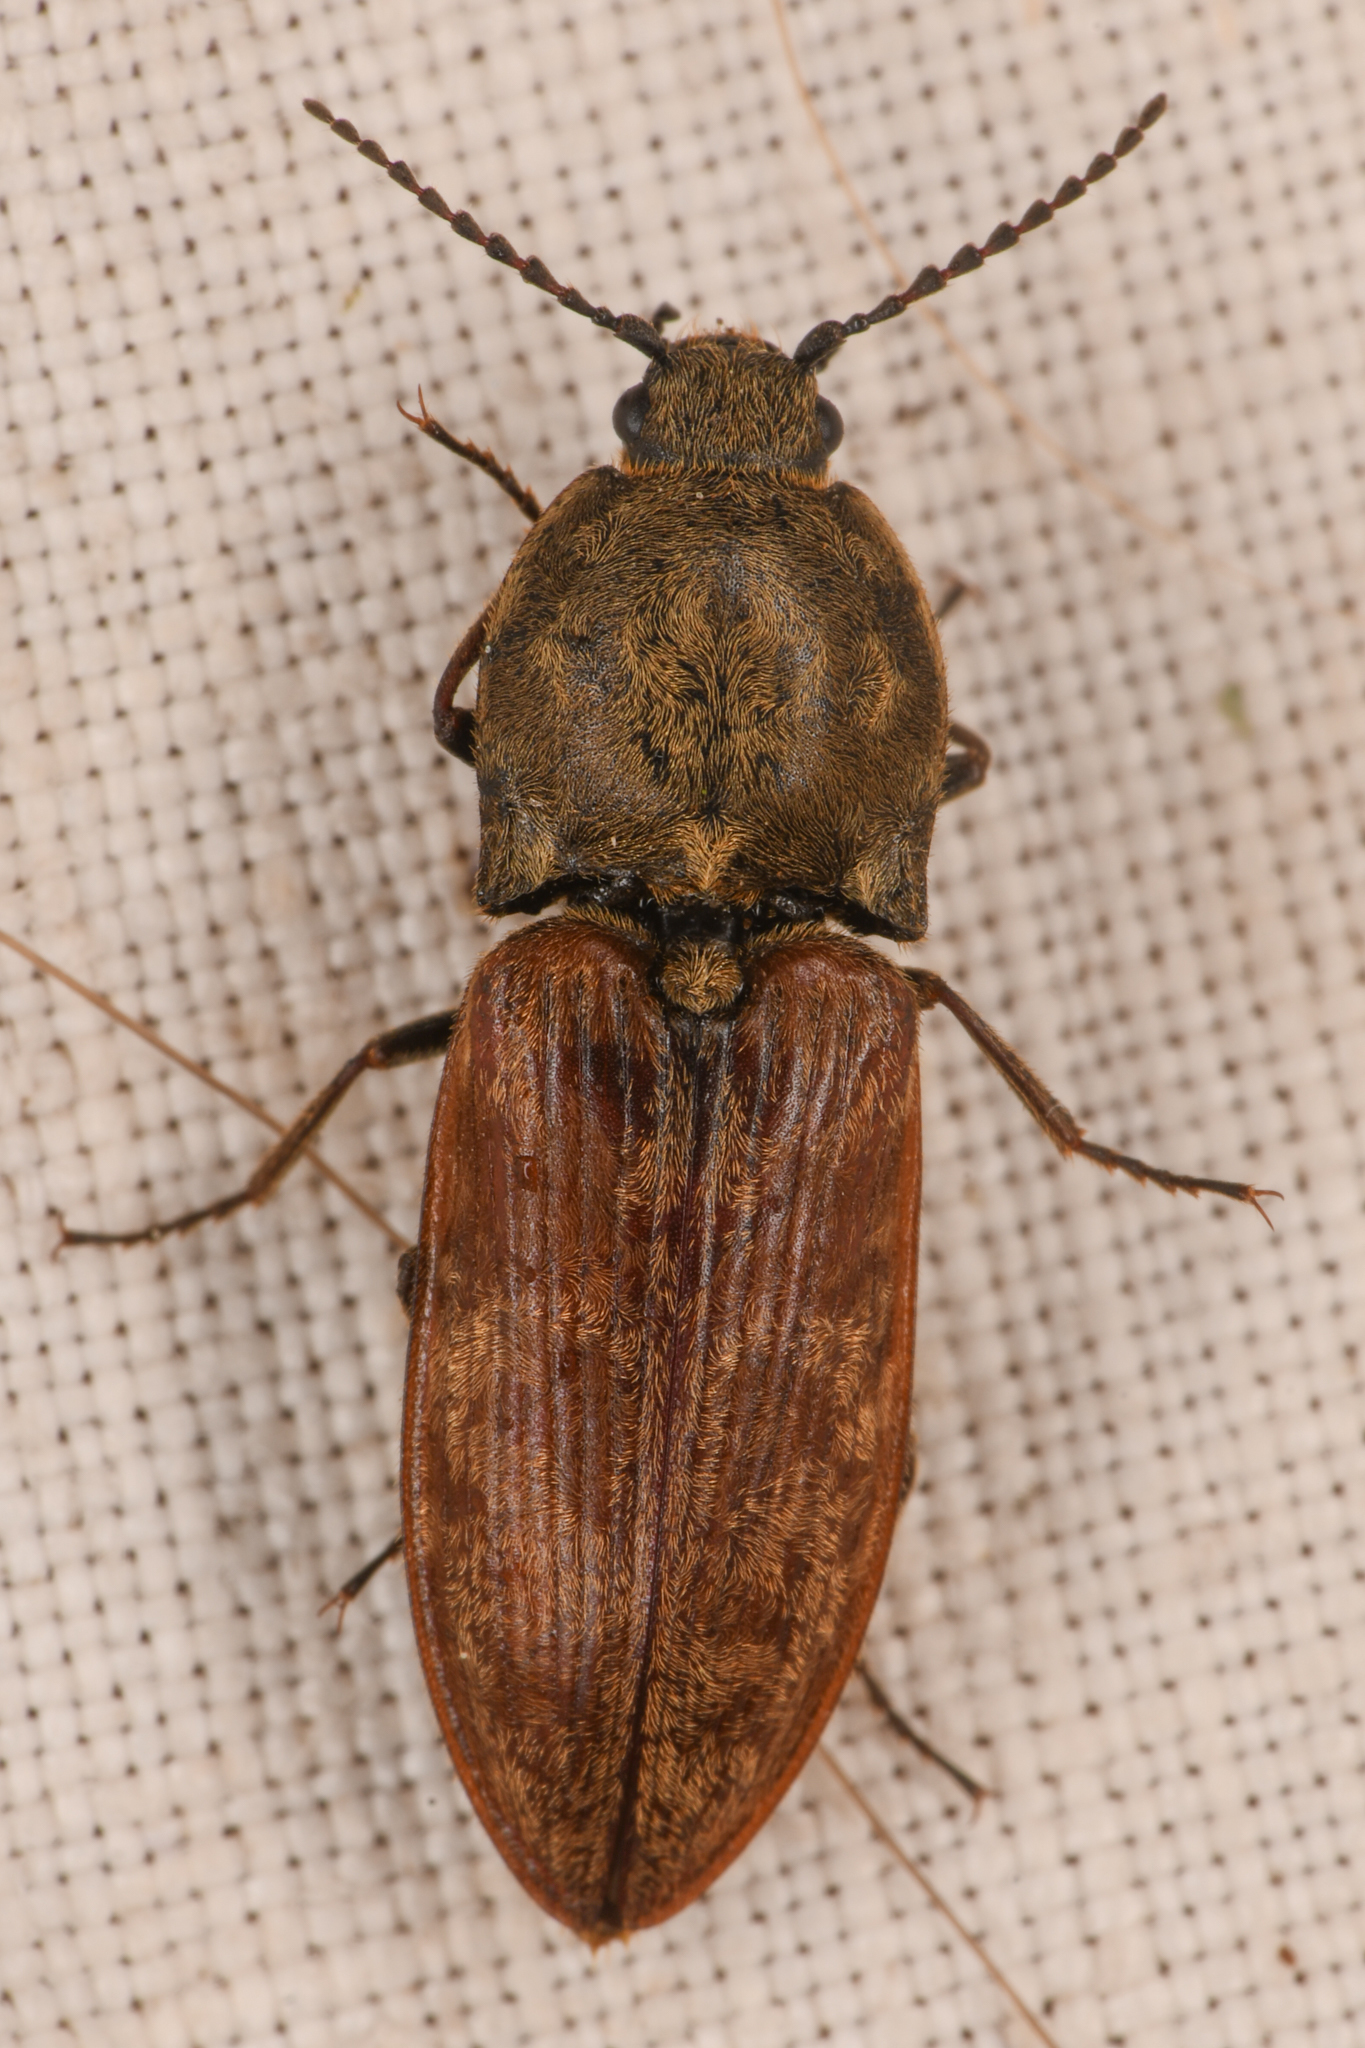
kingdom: Animalia
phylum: Arthropoda
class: Insecta
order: Coleoptera
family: Elateridae
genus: Prosternon
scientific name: Prosternon bombycinum
